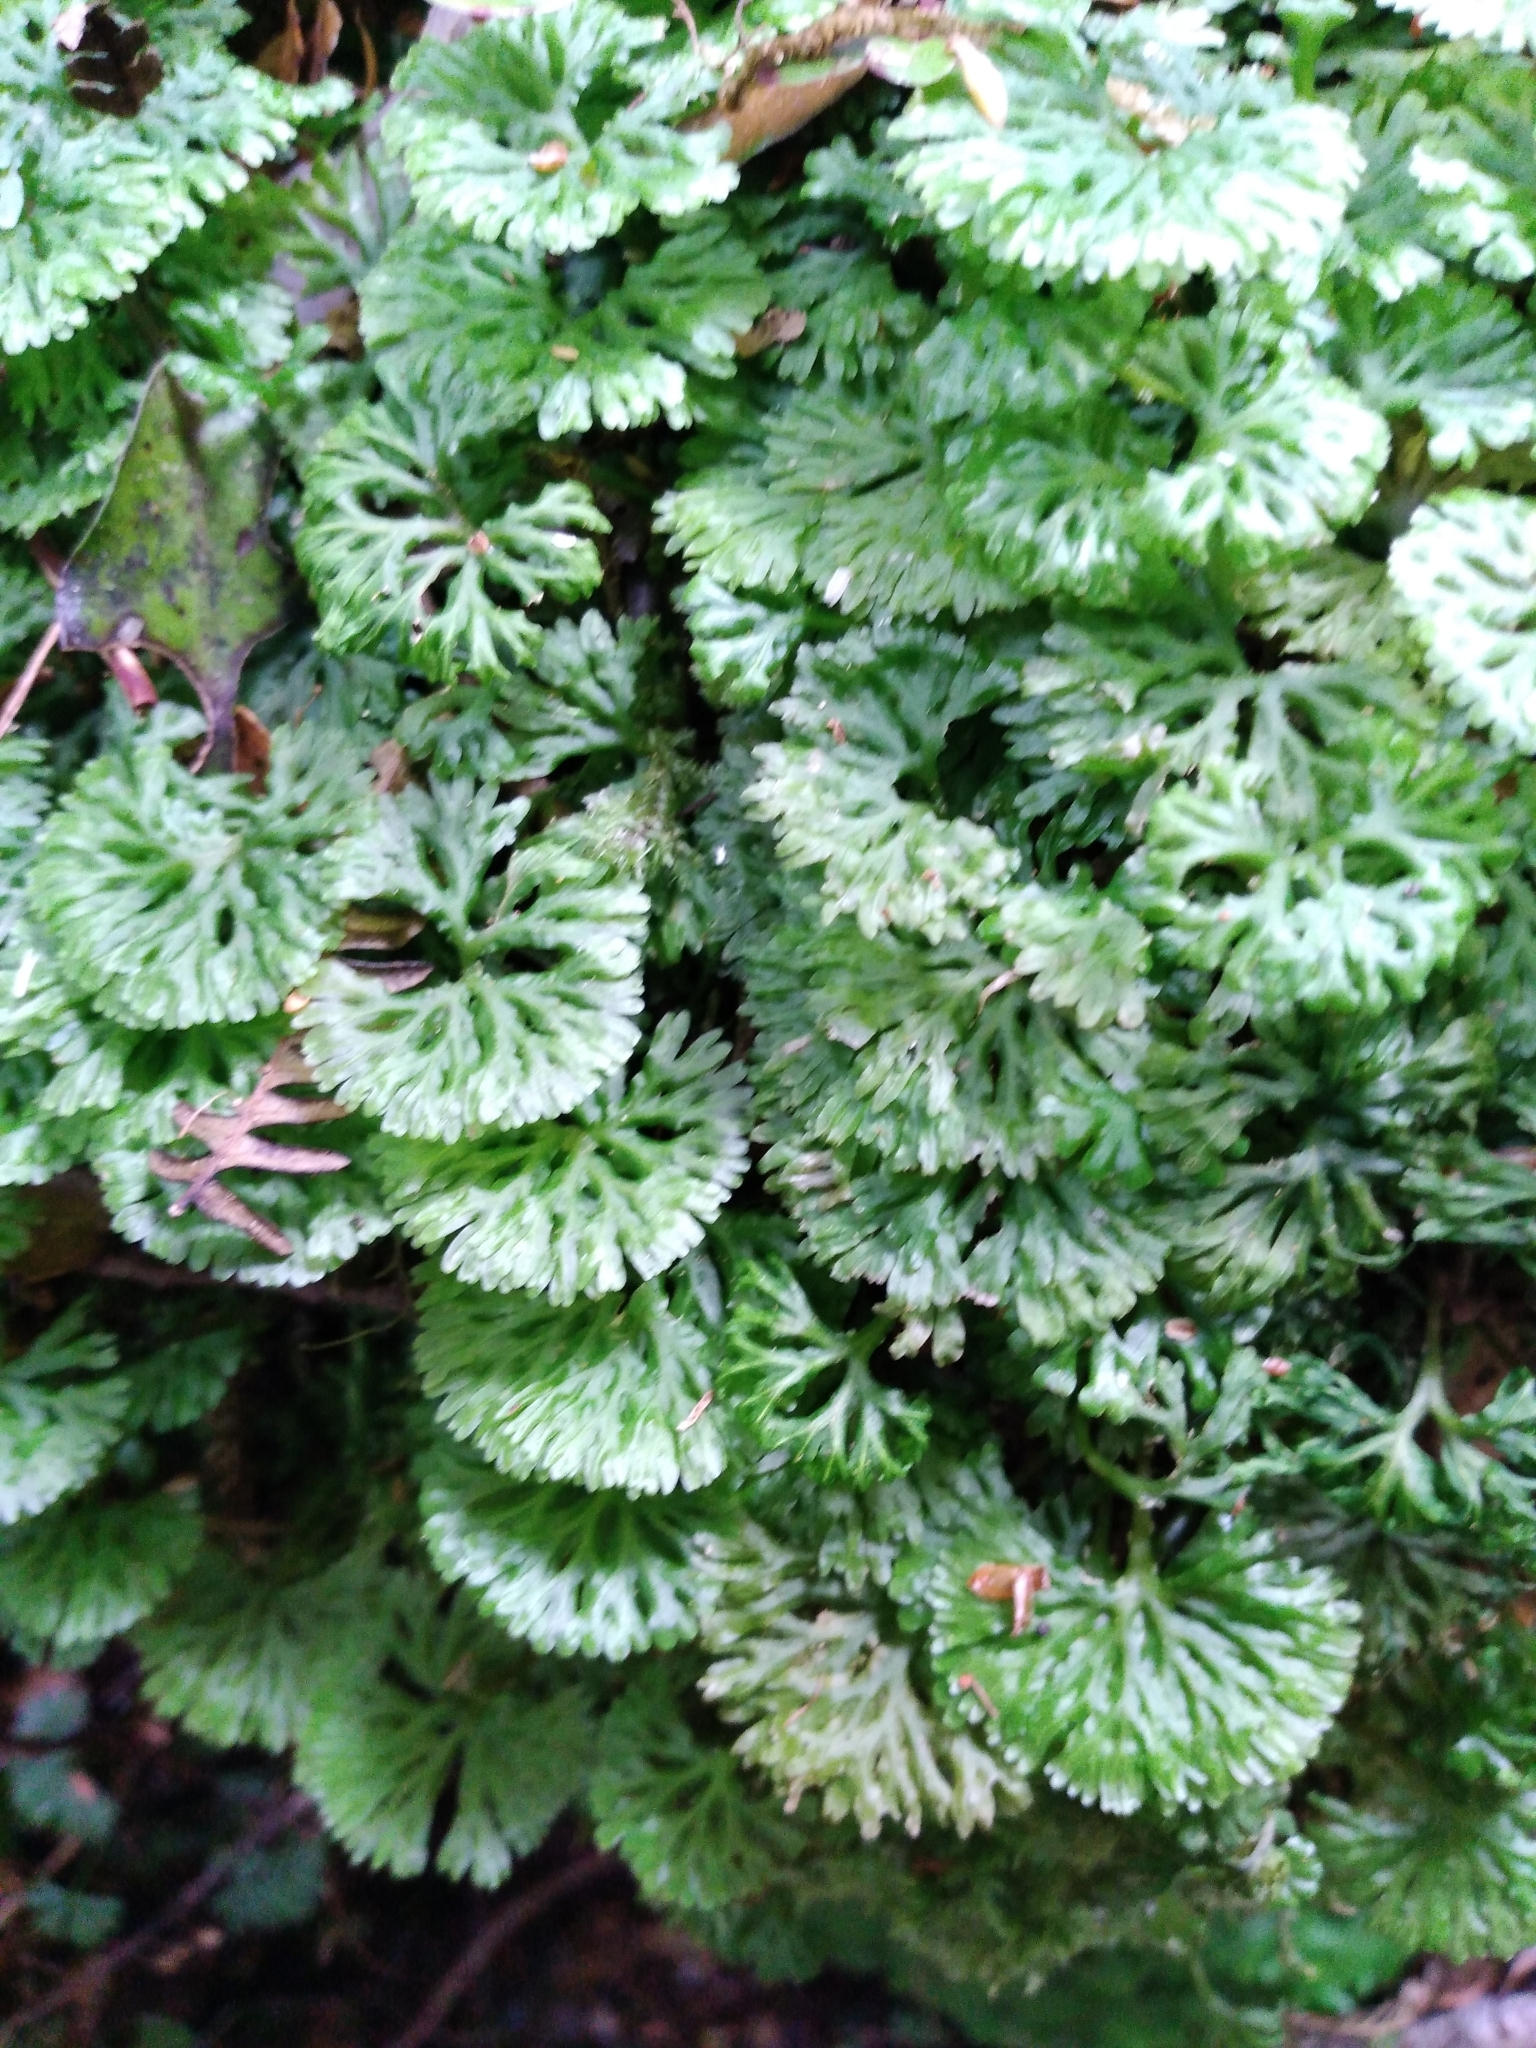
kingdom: Plantae
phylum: Marchantiophyta
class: Jungermanniopsida
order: Pallaviciniales
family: Hymenophytaceae
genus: Hymenophyton
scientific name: Hymenophyton flabellatum
